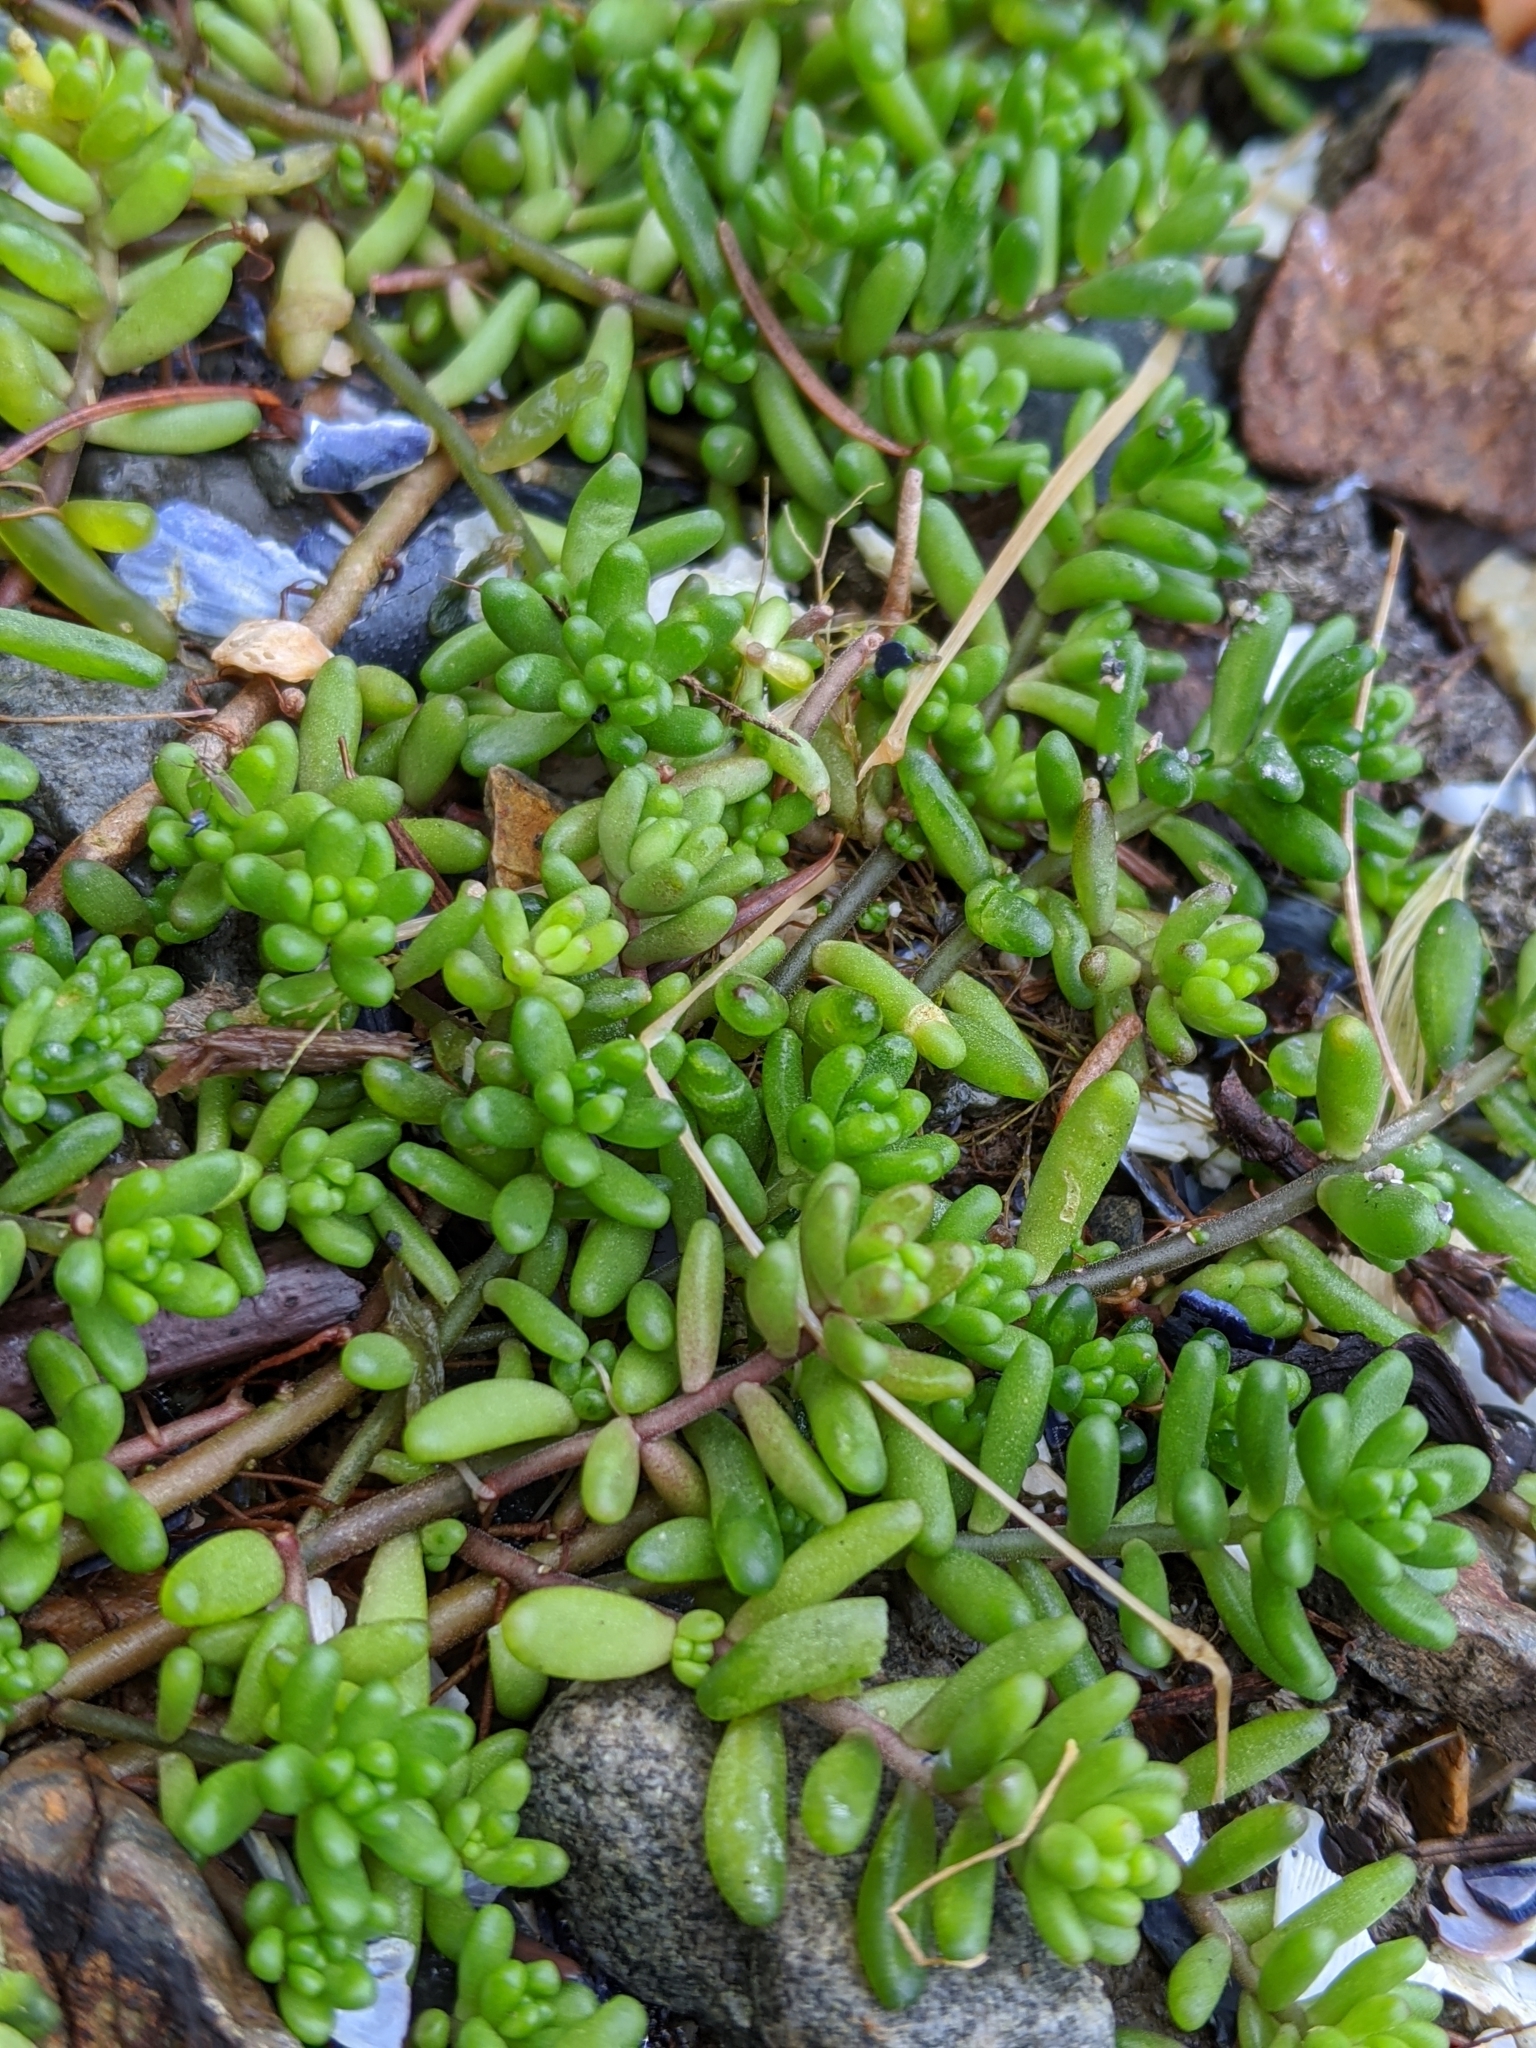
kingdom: Plantae
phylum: Tracheophyta
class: Magnoliopsida
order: Saxifragales
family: Crassulaceae
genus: Sedum
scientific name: Sedum album
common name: White stonecrop
